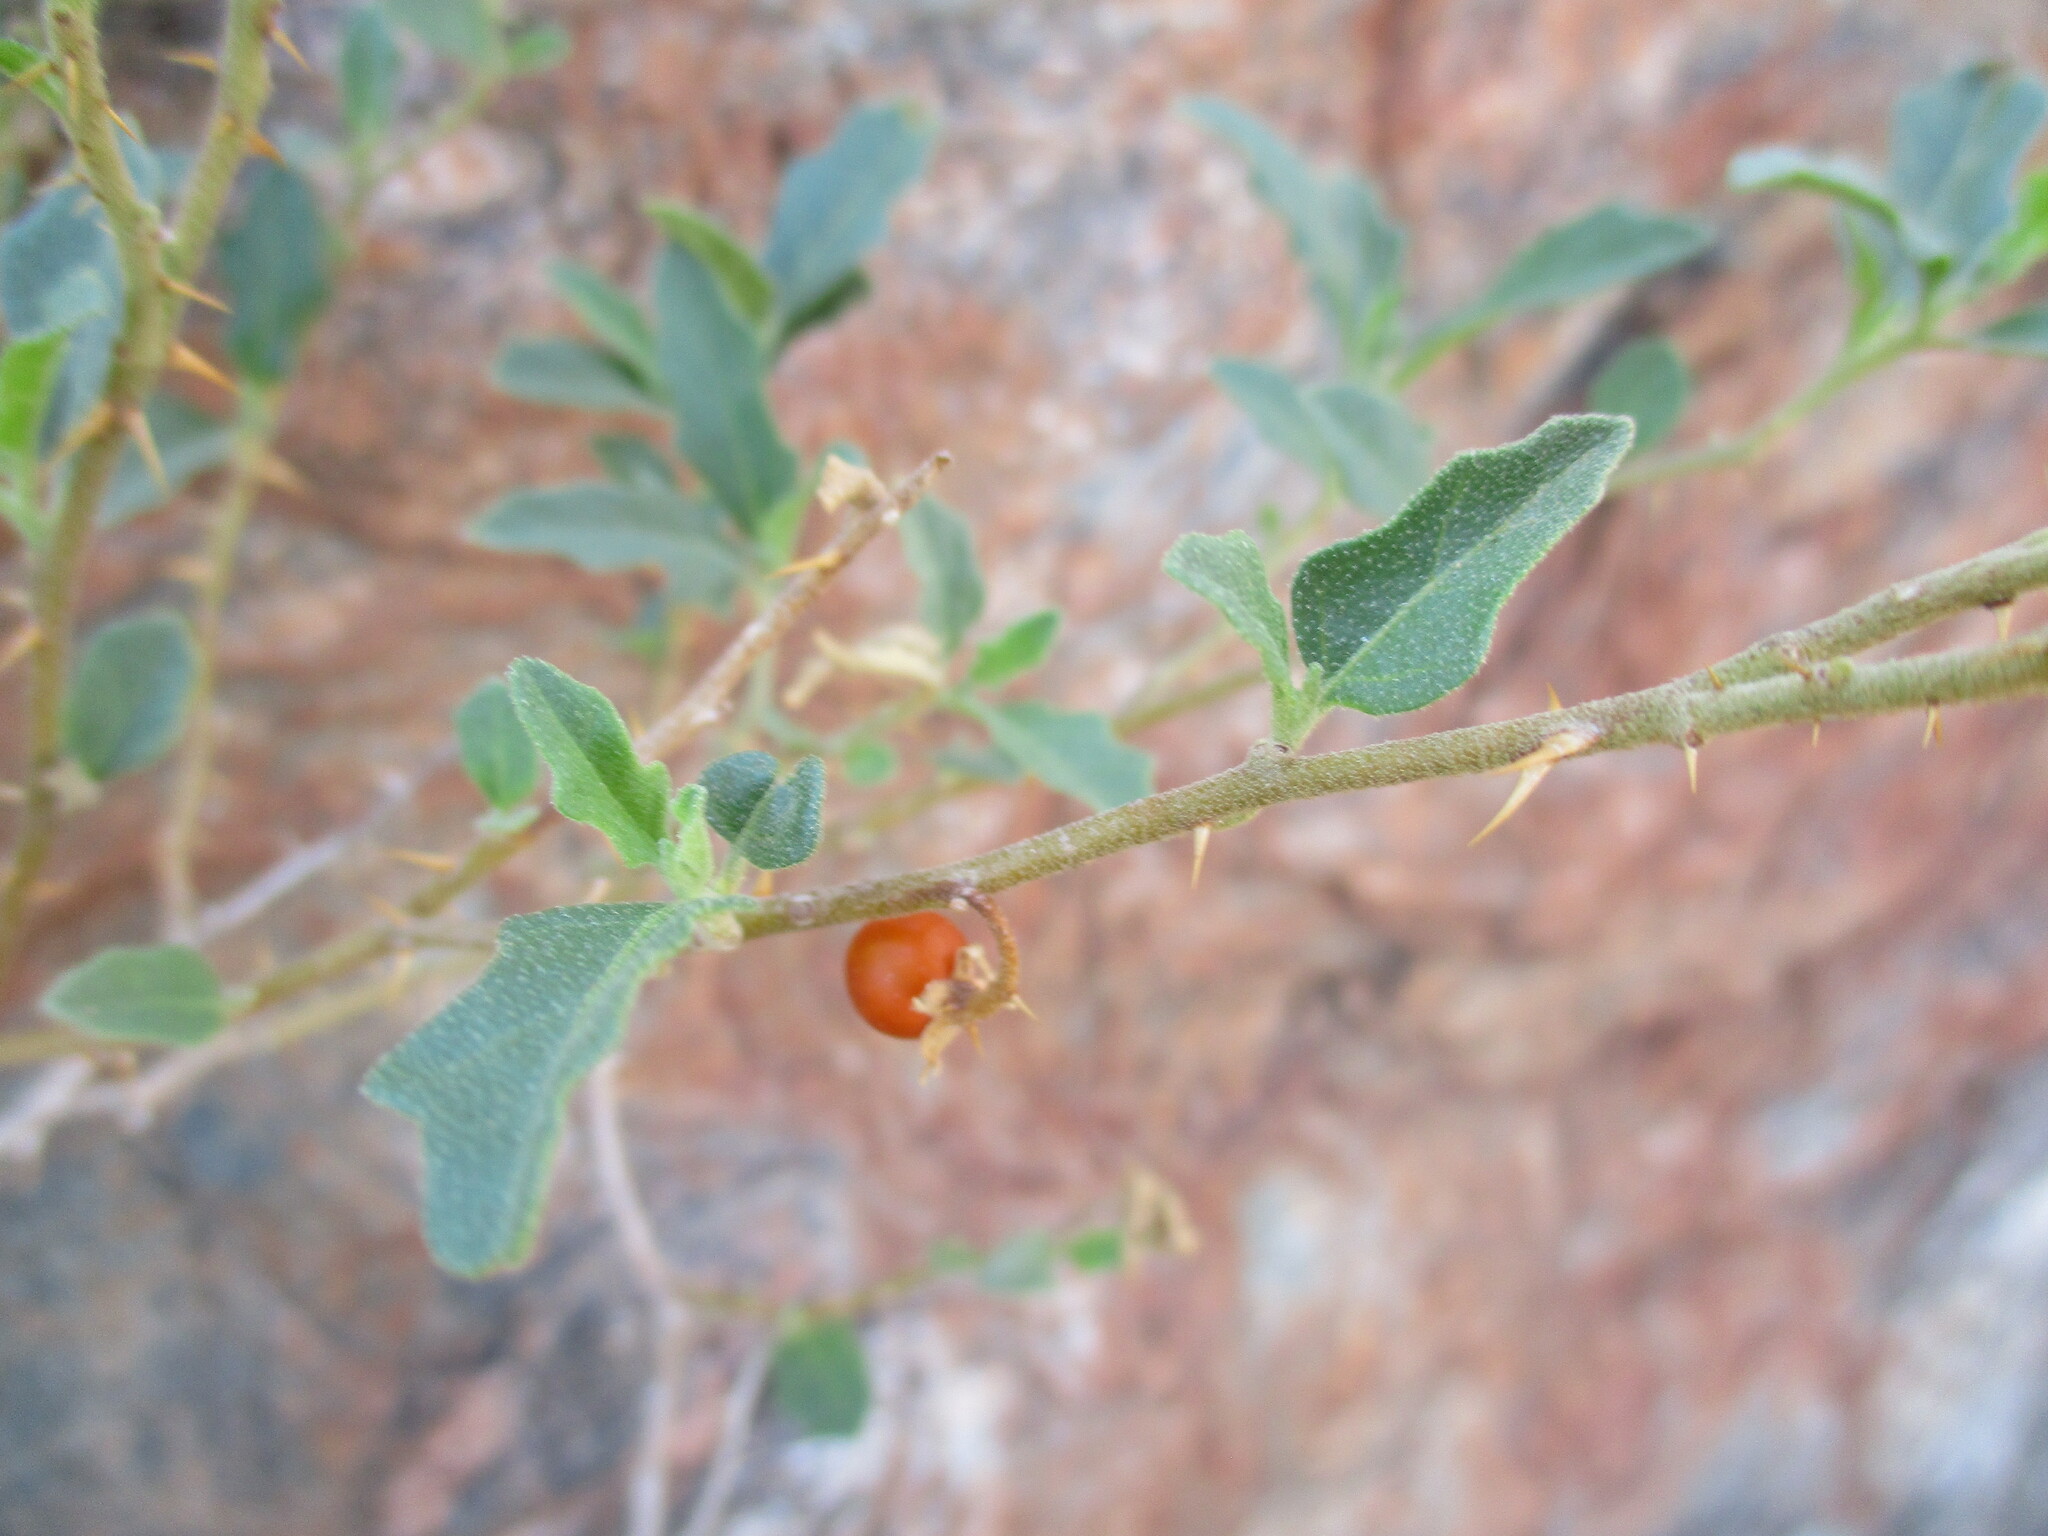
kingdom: Plantae
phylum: Tracheophyta
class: Magnoliopsida
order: Solanales
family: Solanaceae
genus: Solanum
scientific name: Solanum capense
